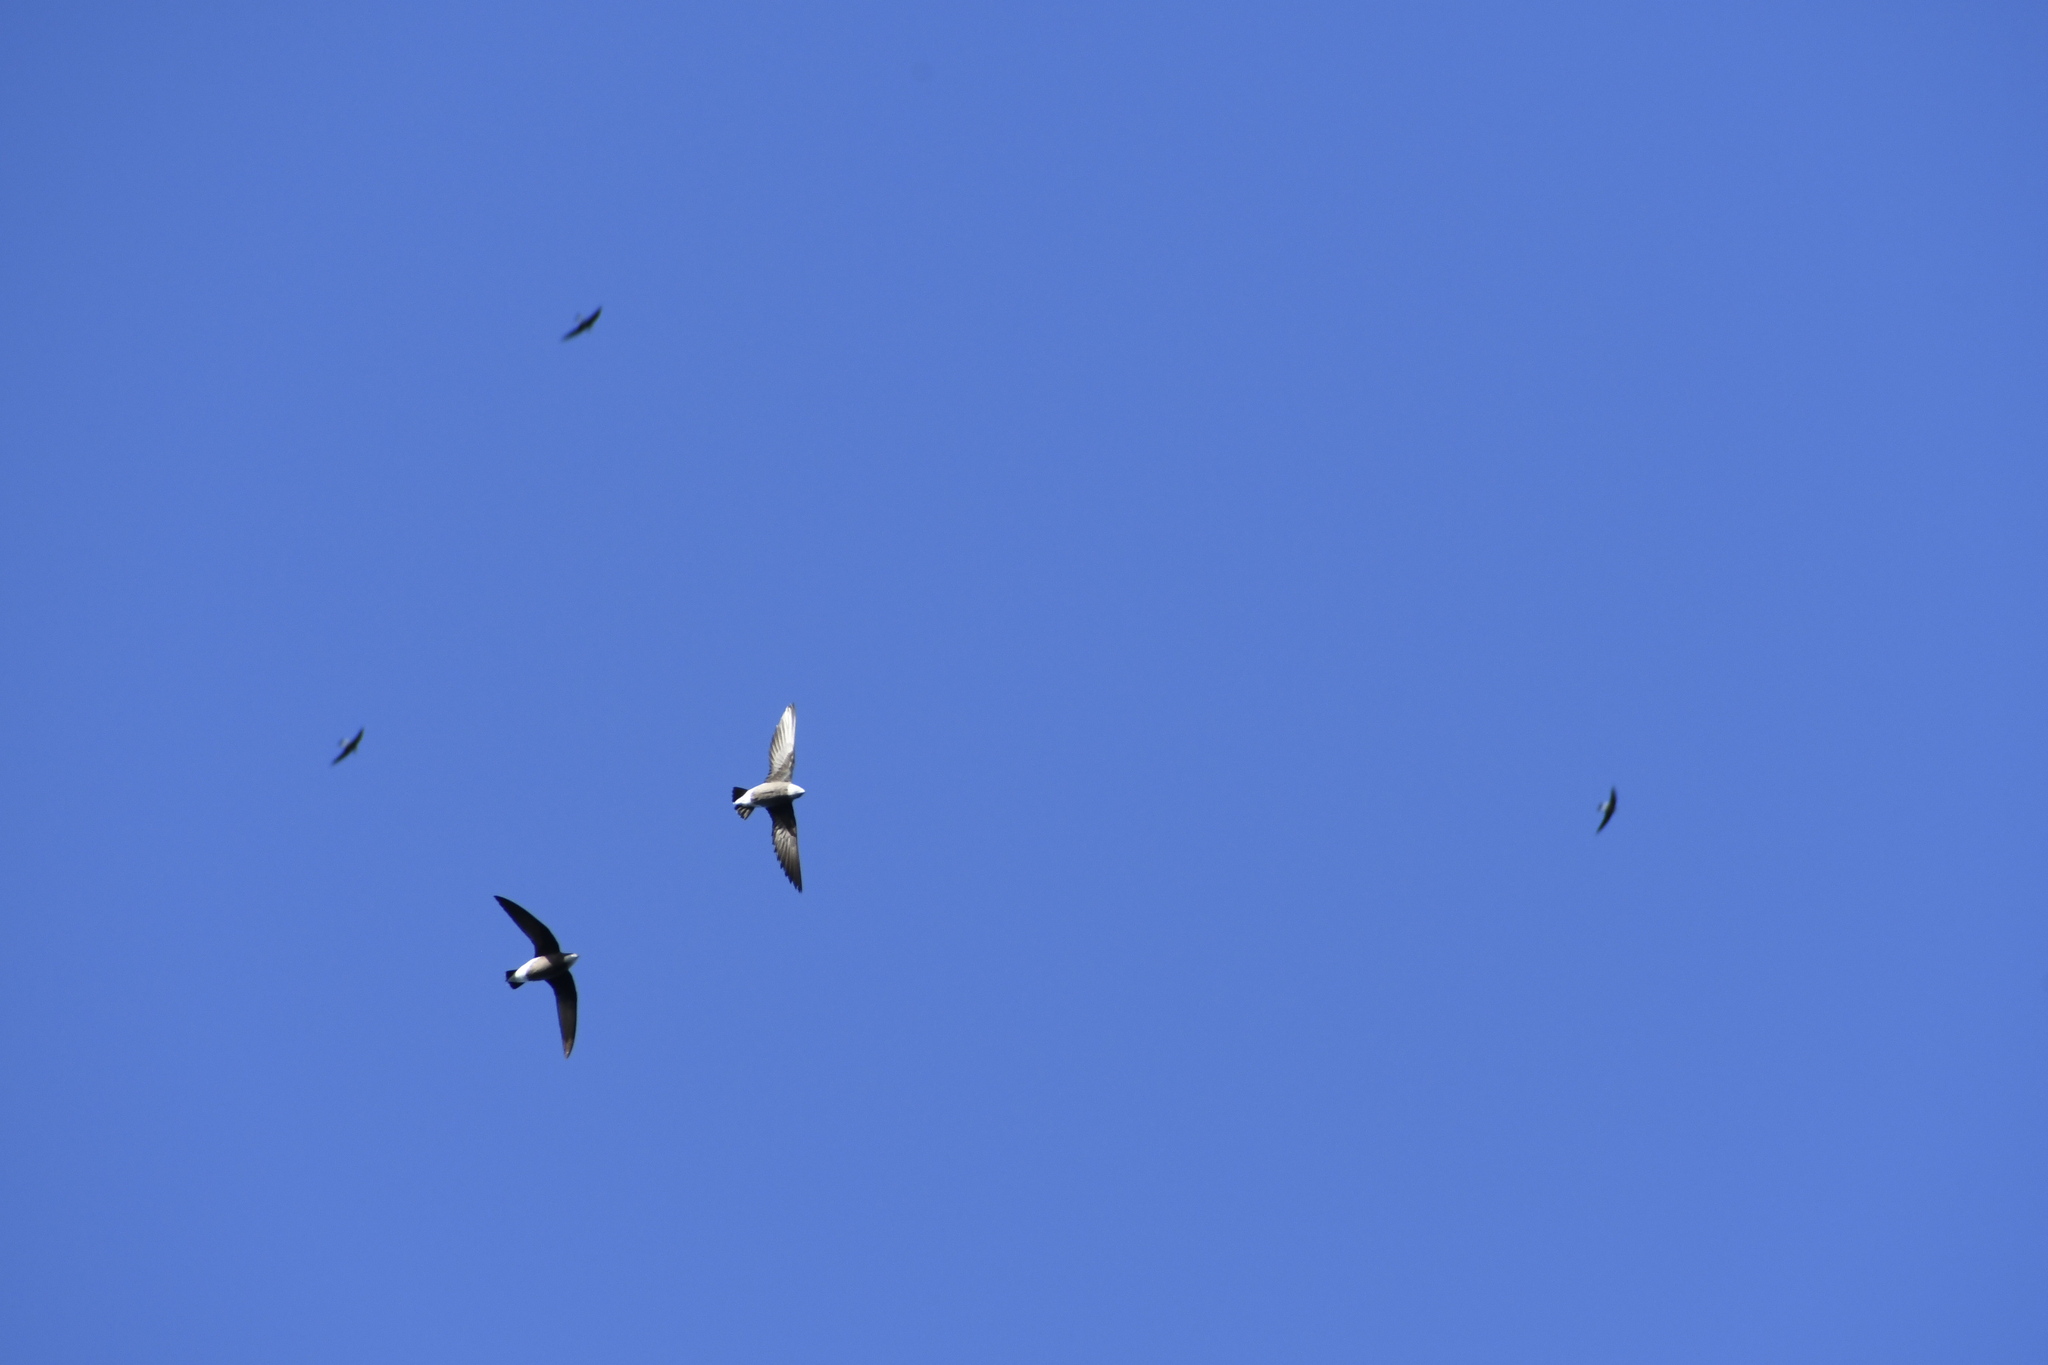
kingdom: Animalia
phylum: Chordata
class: Aves
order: Apodiformes
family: Apodidae
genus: Hirundapus
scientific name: Hirundapus caudacutus
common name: White-throated needletail
